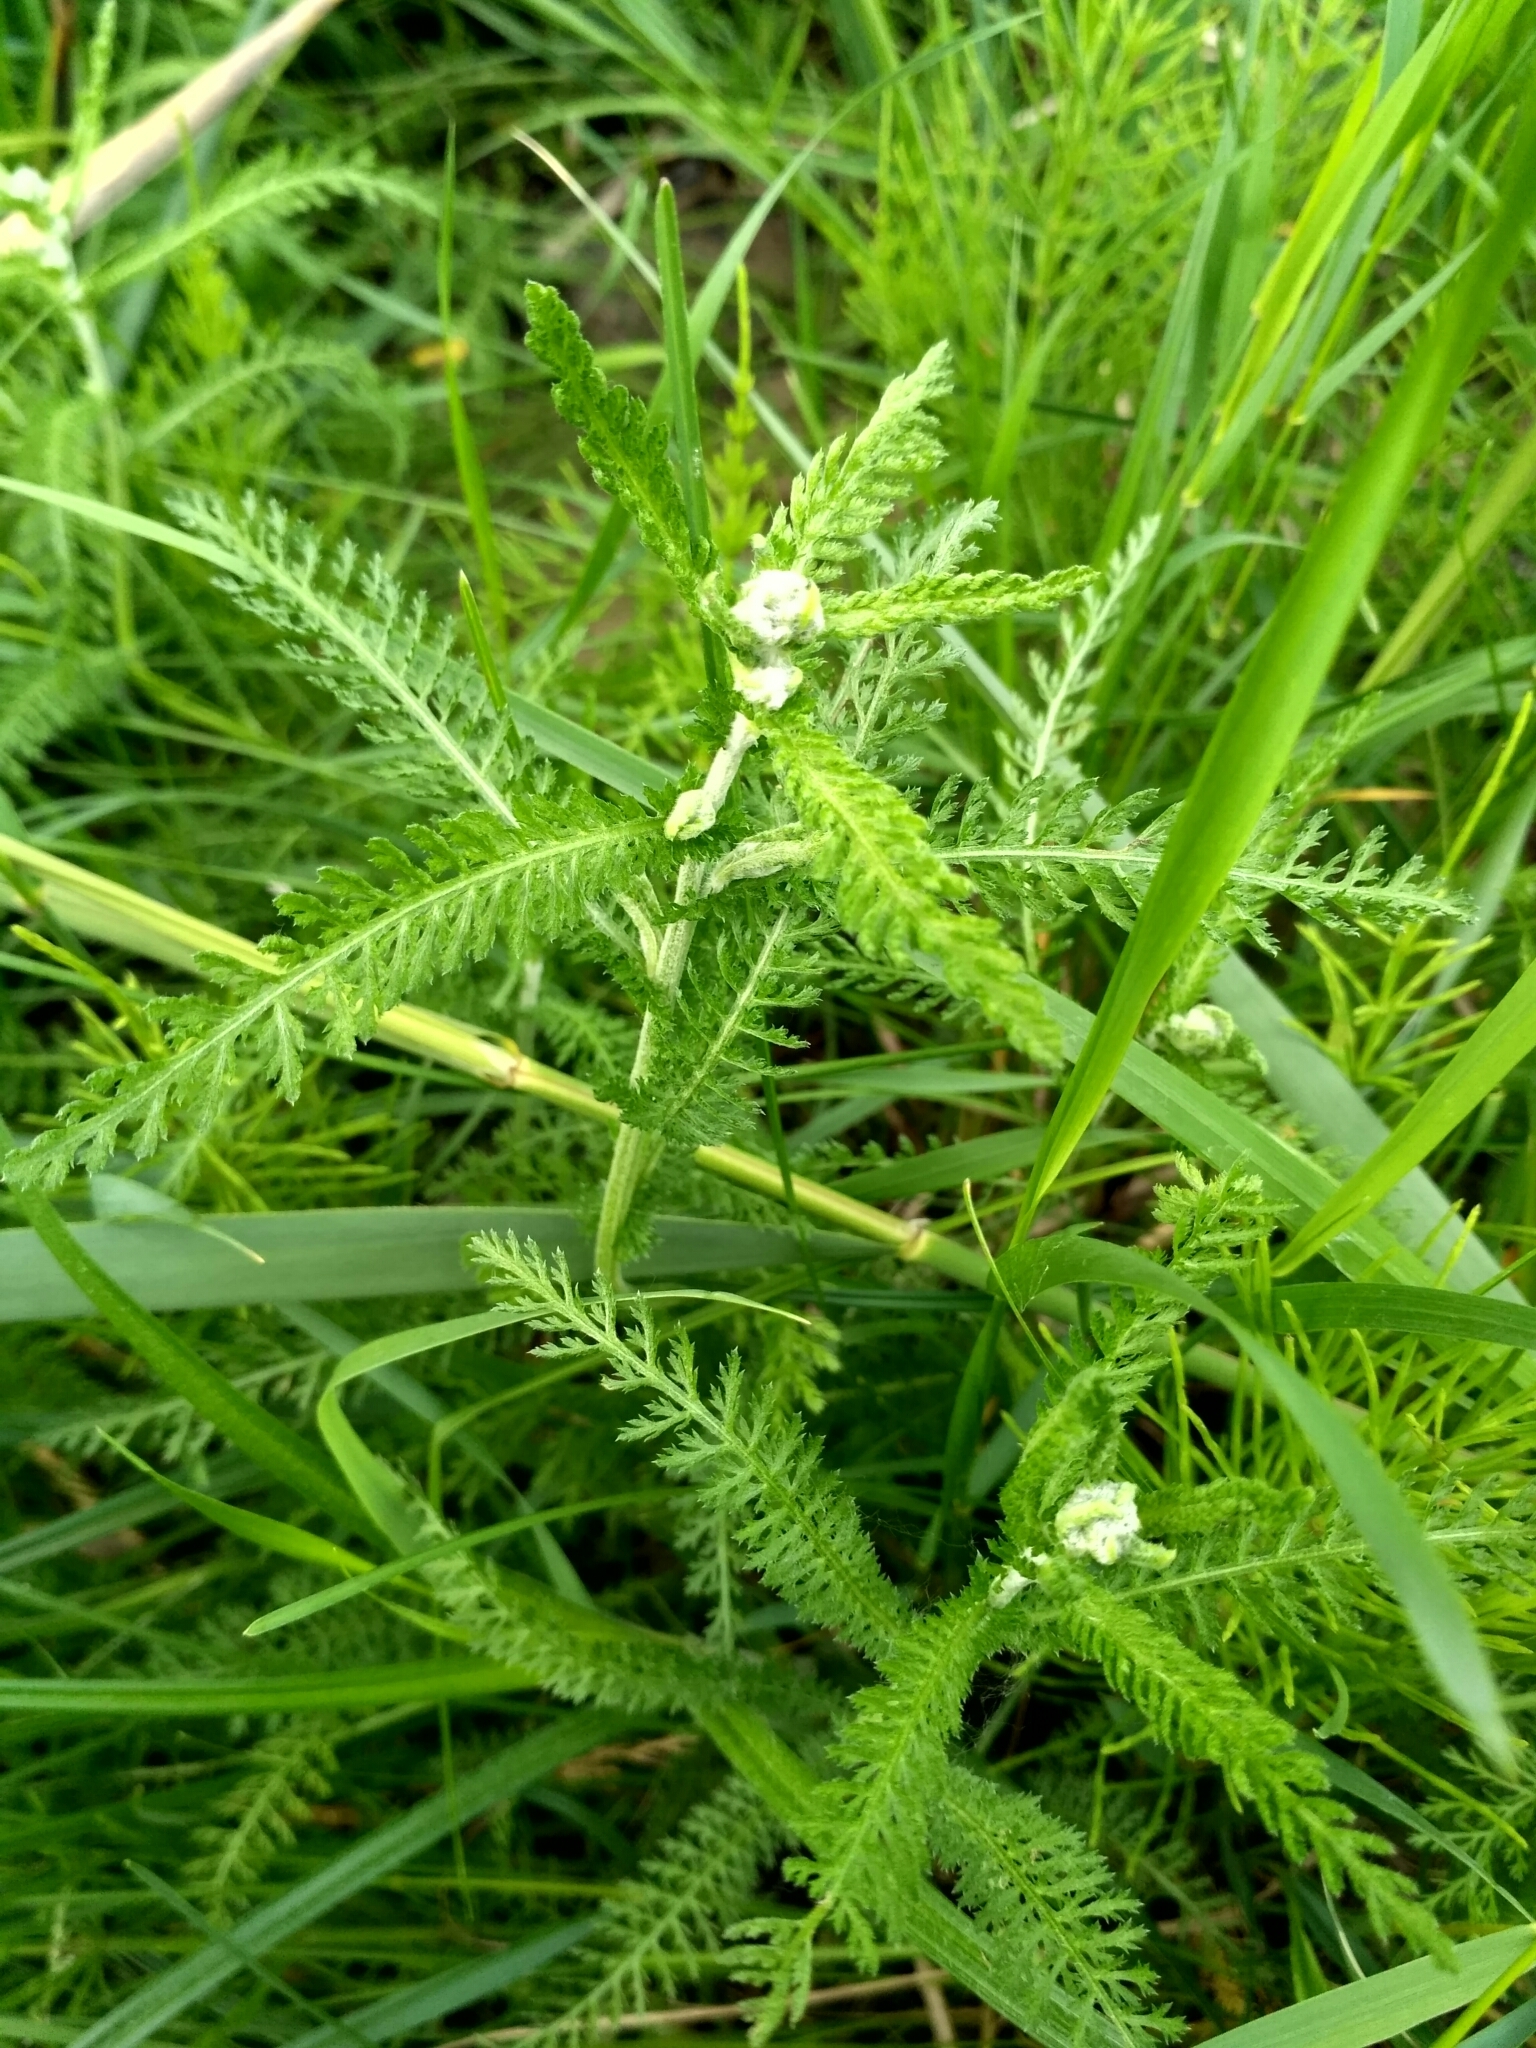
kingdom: Plantae
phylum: Tracheophyta
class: Magnoliopsida
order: Asterales
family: Asteraceae
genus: Achillea
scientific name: Achillea inundata
